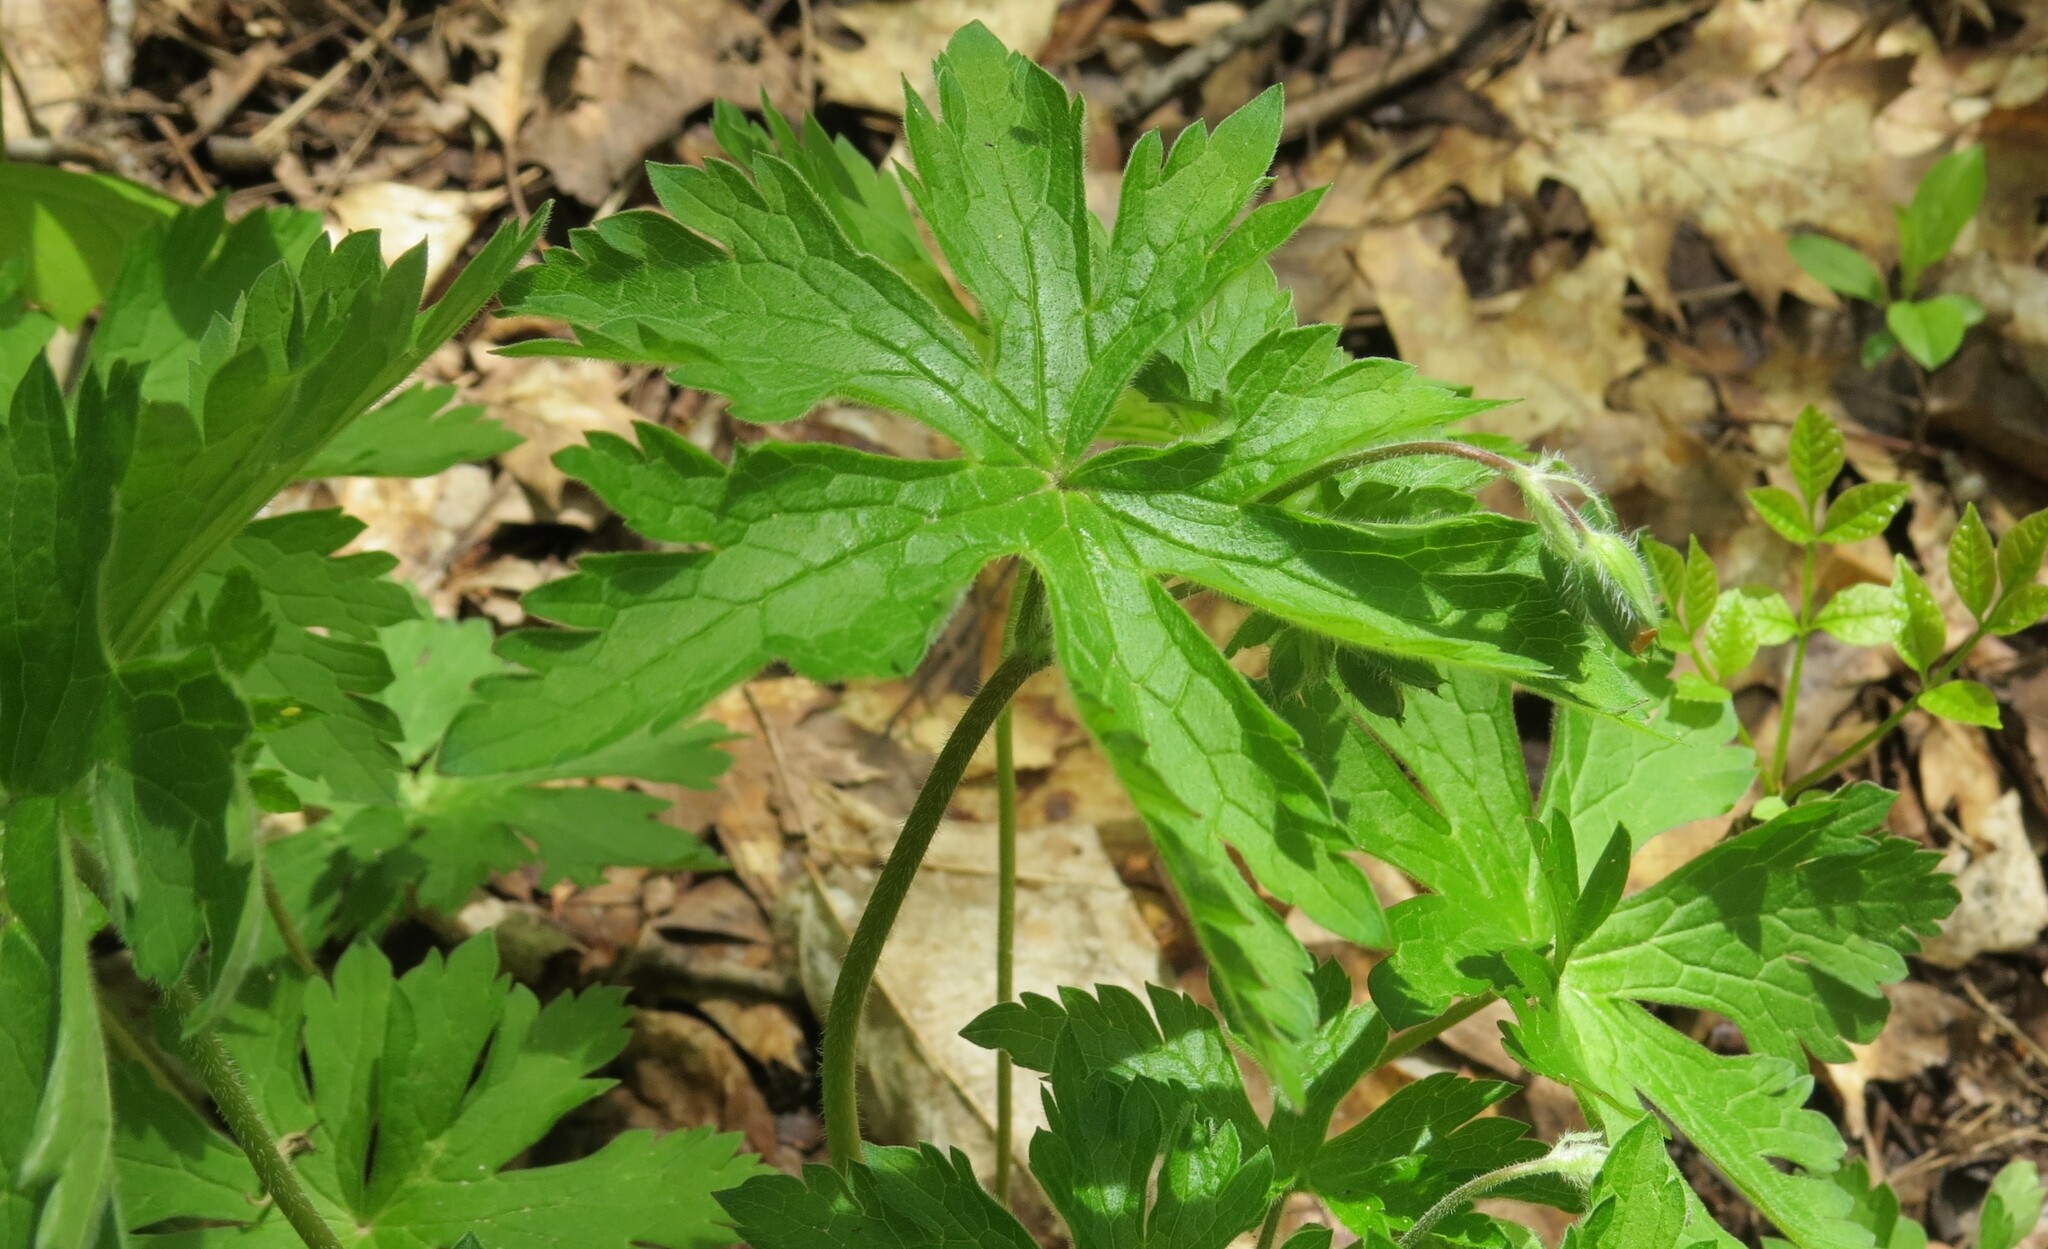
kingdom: Plantae
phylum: Tracheophyta
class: Magnoliopsida
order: Geraniales
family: Geraniaceae
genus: Geranium
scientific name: Geranium maculatum
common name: Spotted geranium
